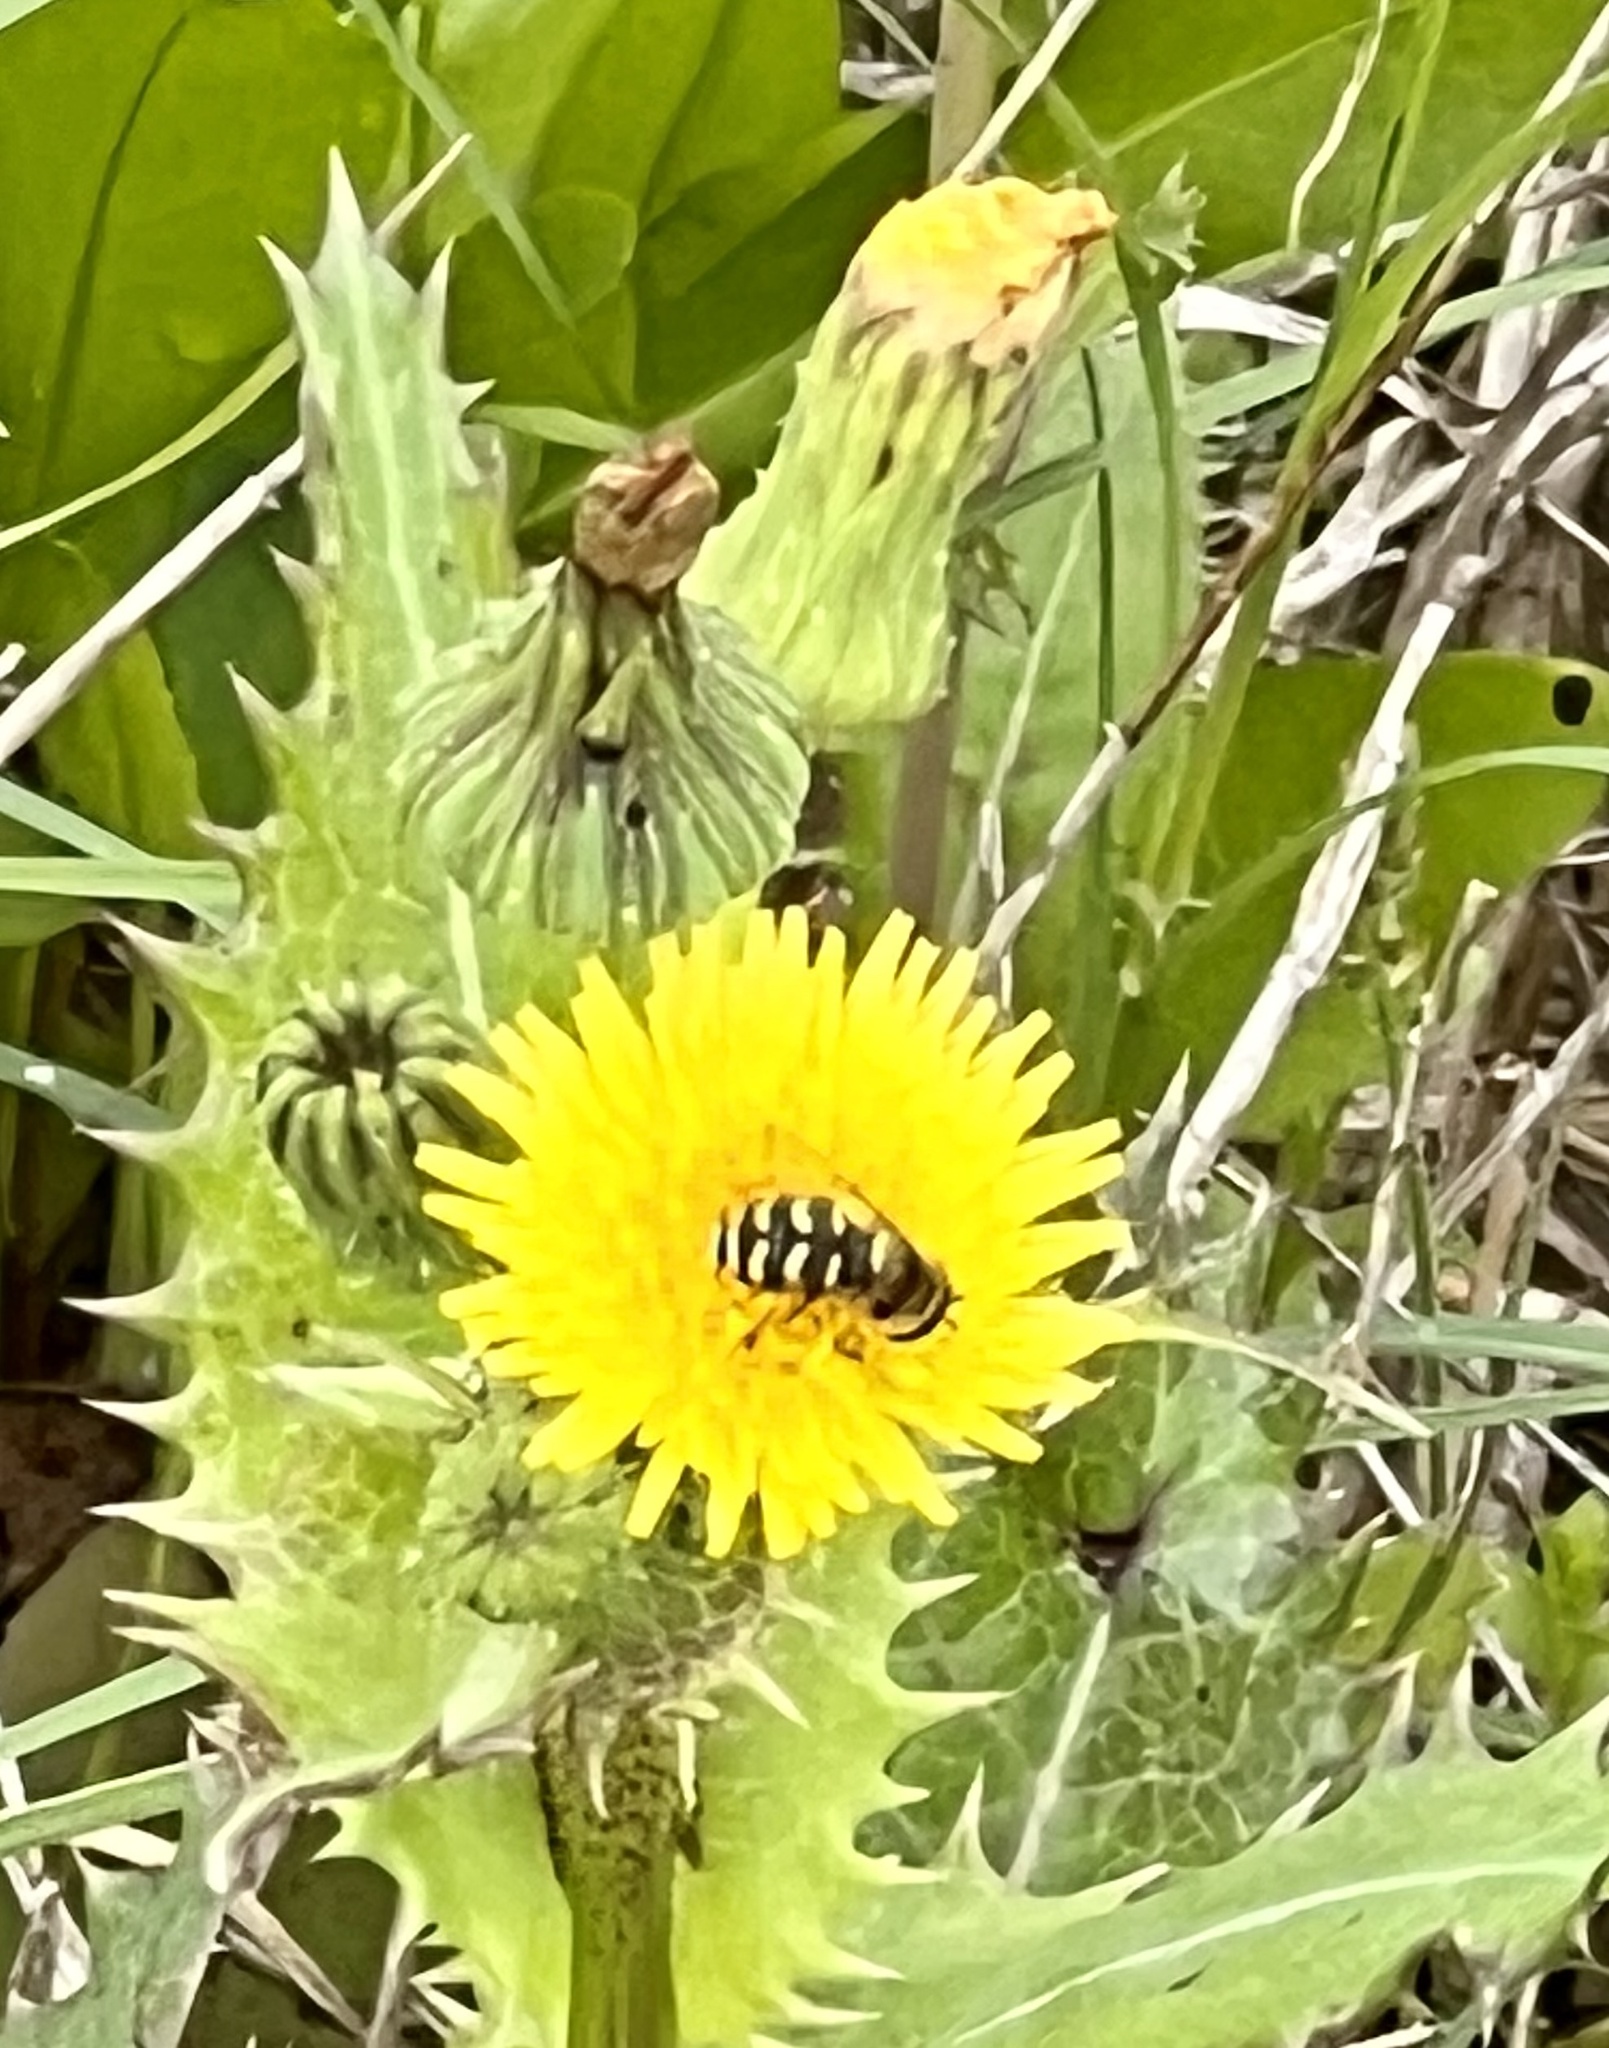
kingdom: Animalia
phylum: Arthropoda
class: Insecta
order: Diptera
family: Syrphidae
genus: Eupeodes
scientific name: Eupeodes volucris
